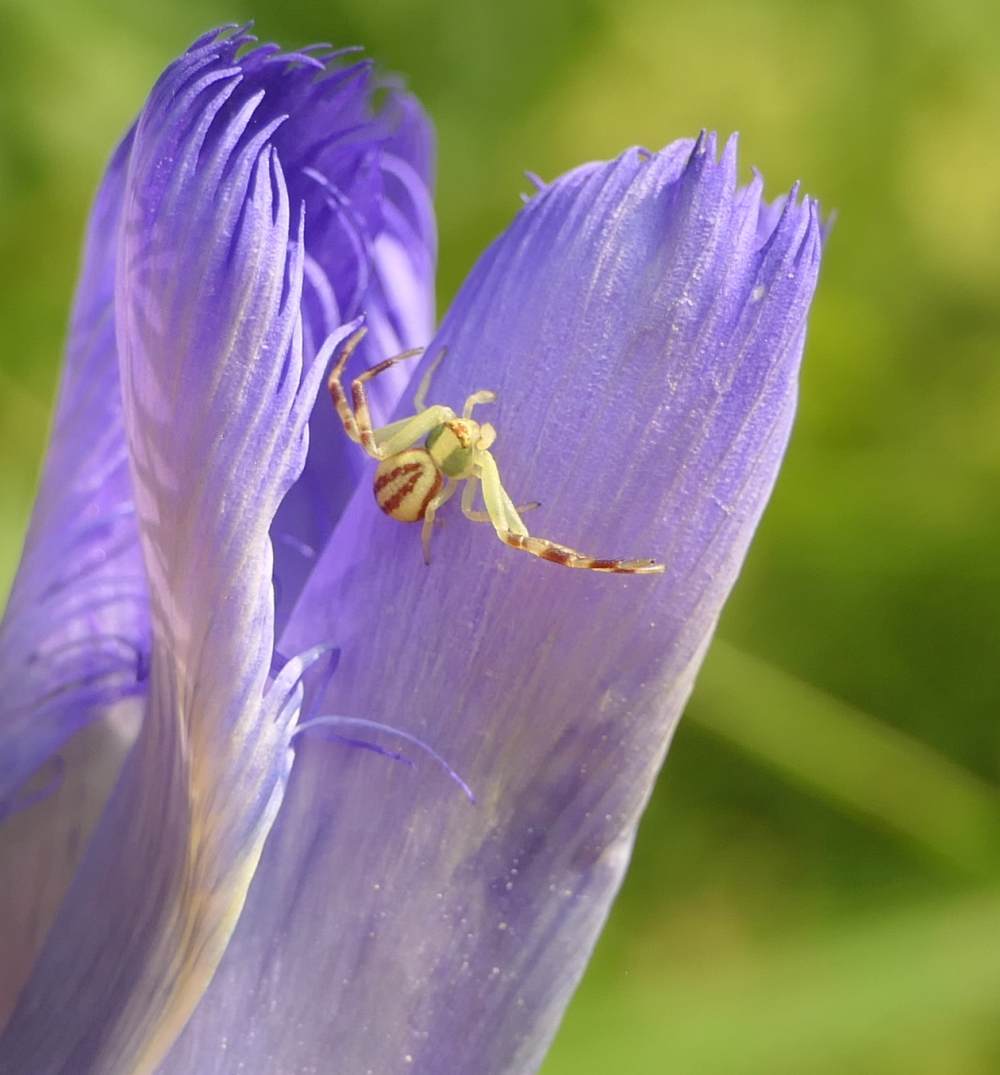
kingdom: Animalia
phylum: Arthropoda
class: Arachnida
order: Araneae
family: Thomisidae
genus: Misumena
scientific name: Misumena vatia
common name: Goldenrod crab spider
